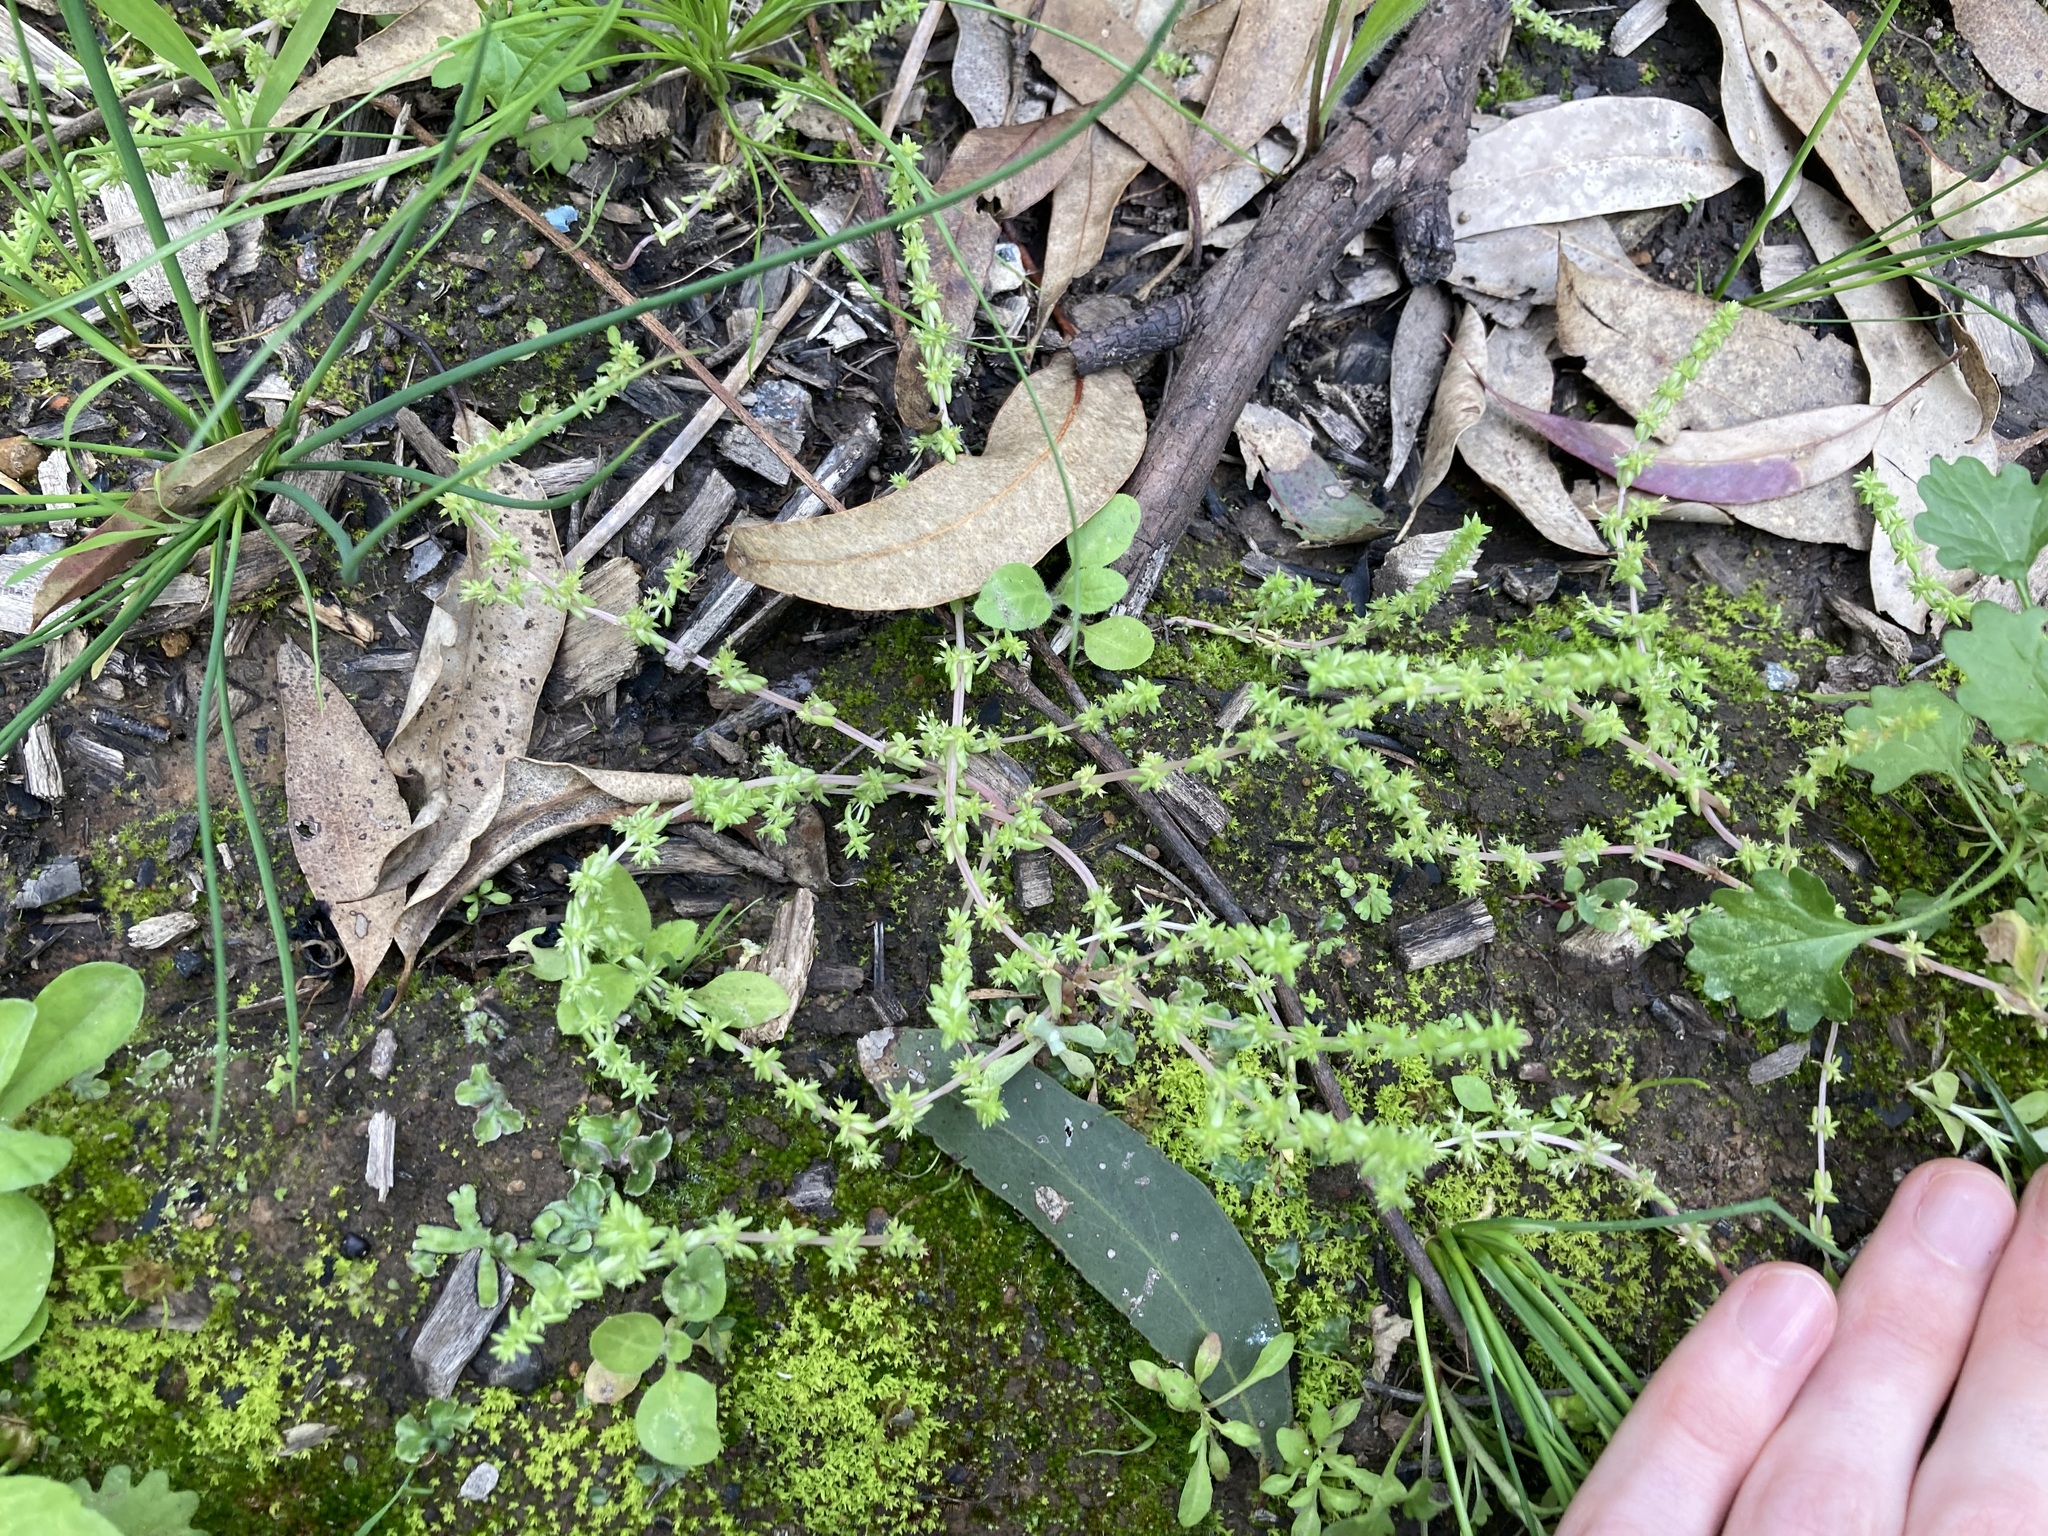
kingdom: Plantae
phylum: Tracheophyta
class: Magnoliopsida
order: Saxifragales
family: Crassulaceae
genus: Crassula
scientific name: Crassula sieberiana
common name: Siberian pygmyweed
